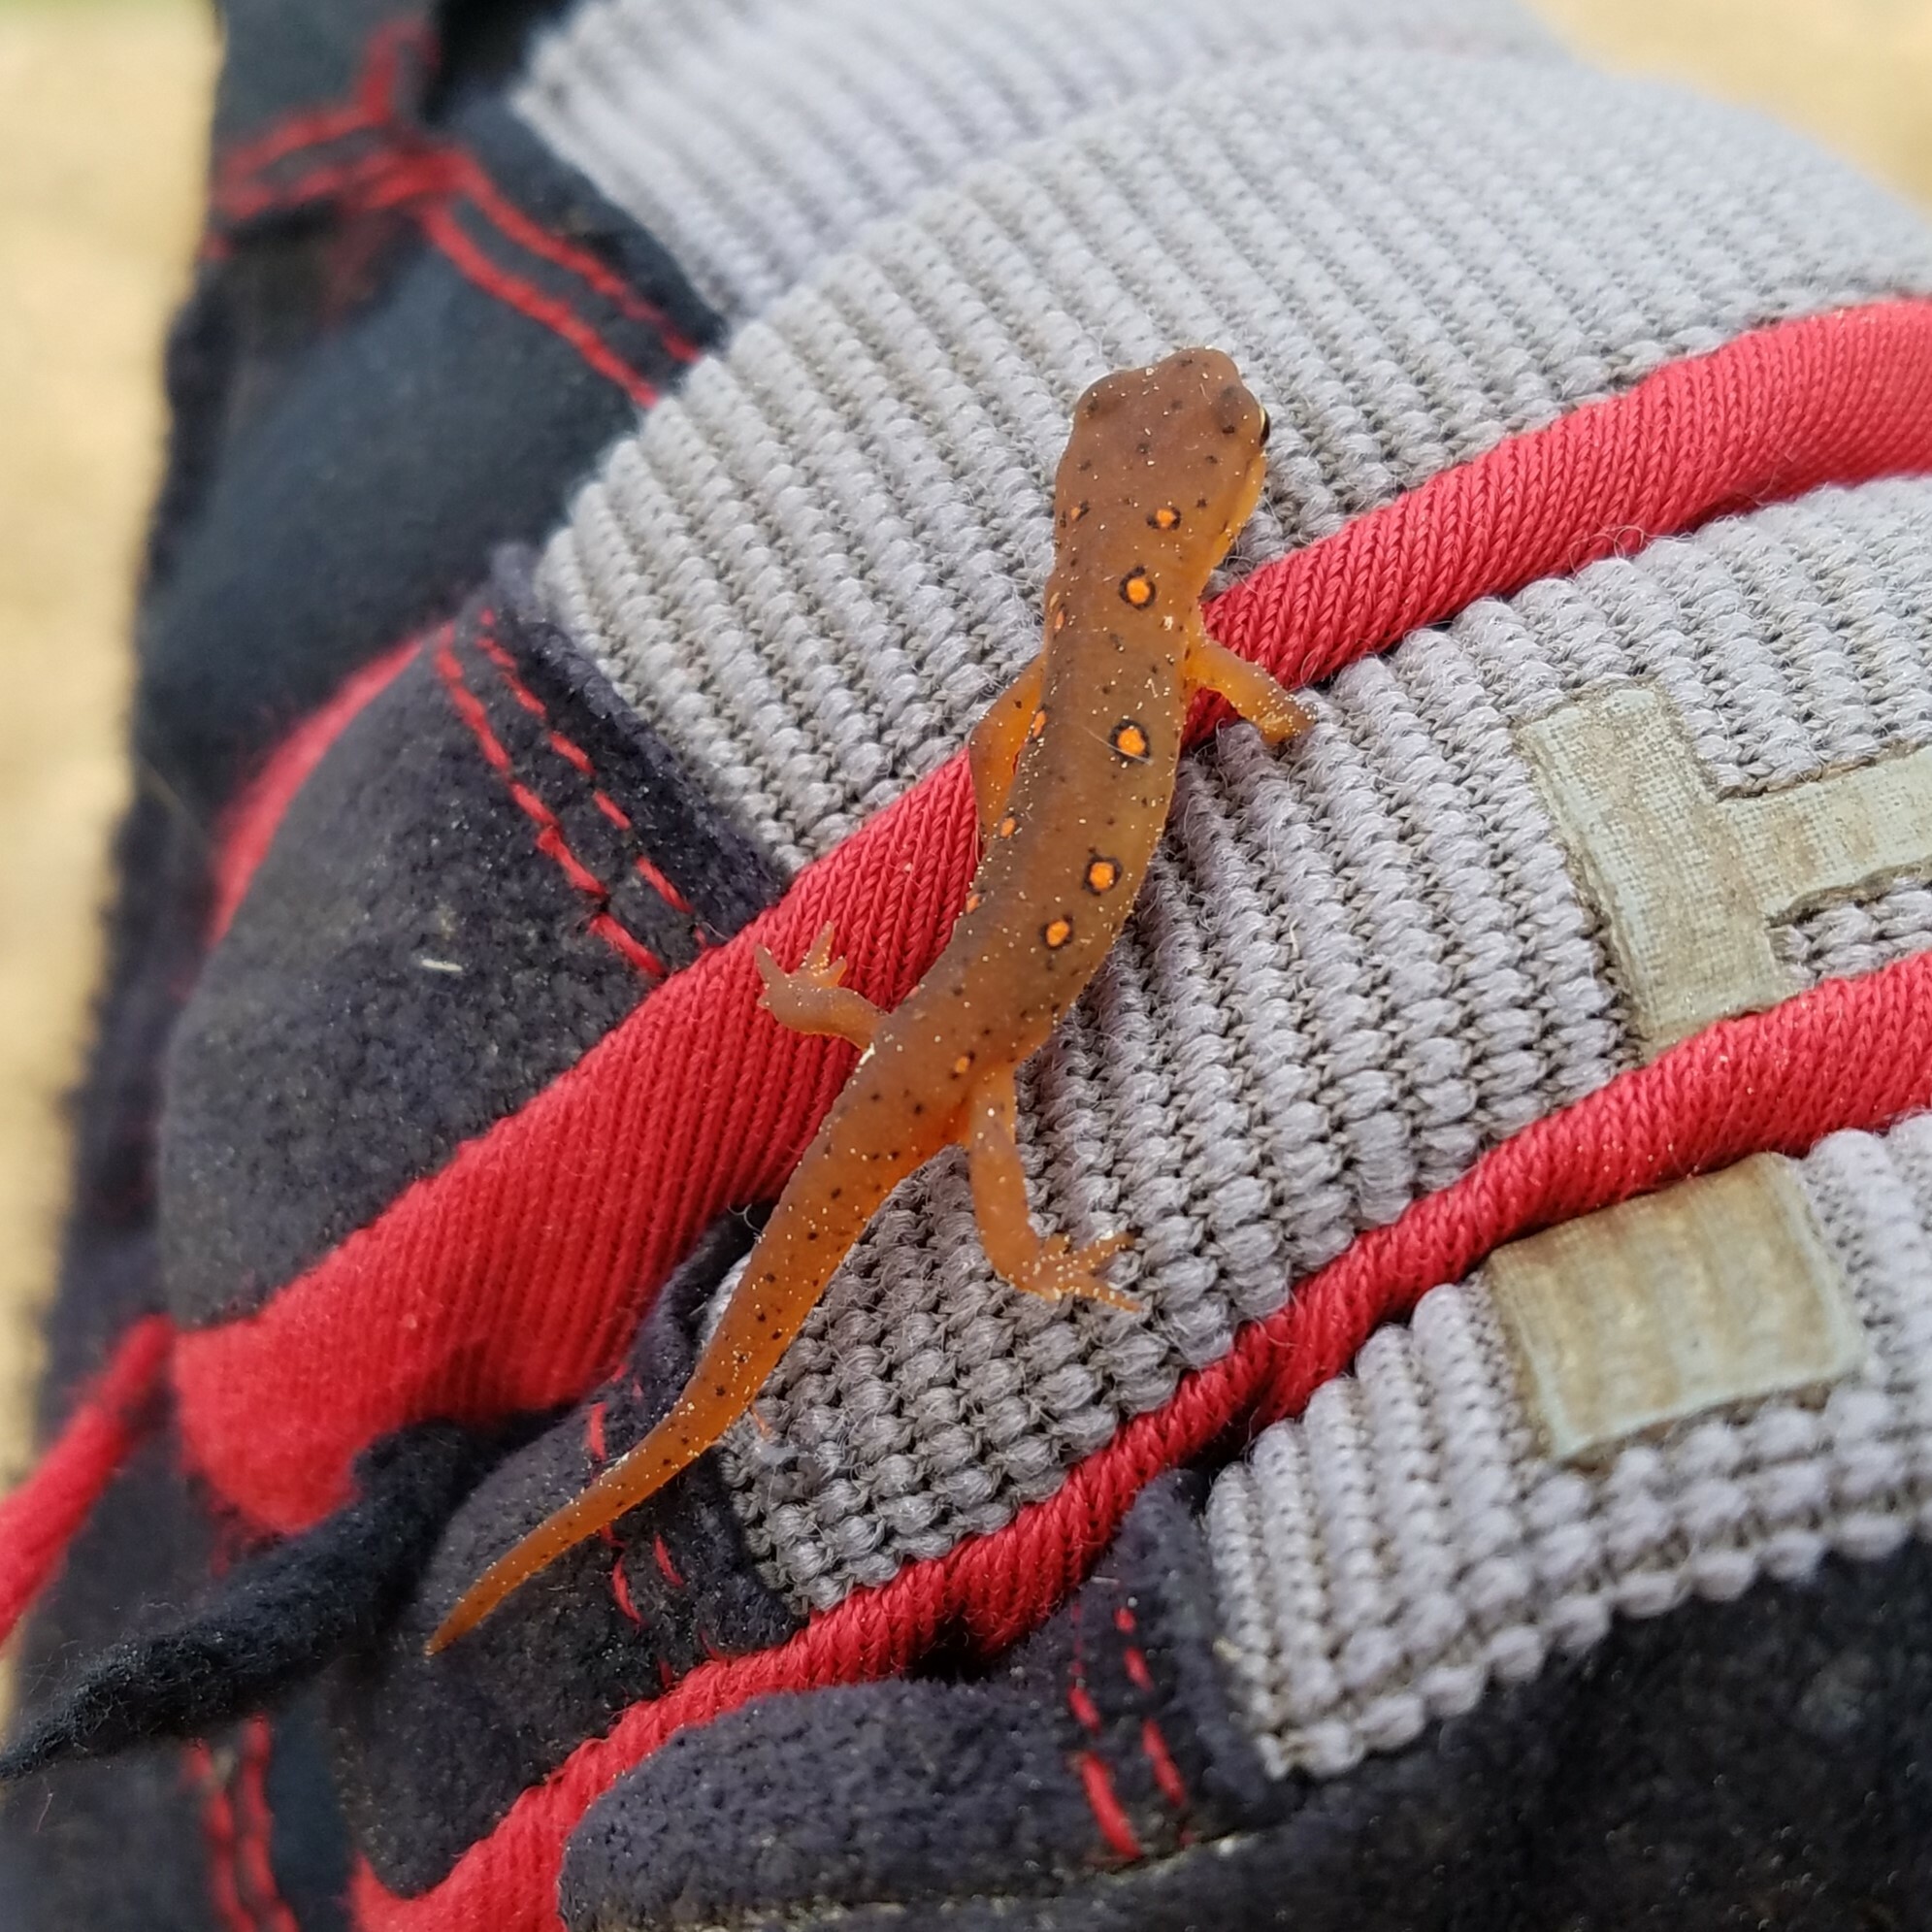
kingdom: Animalia
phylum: Chordata
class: Amphibia
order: Caudata
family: Salamandridae
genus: Notophthalmus
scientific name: Notophthalmus viridescens
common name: Eastern newt
